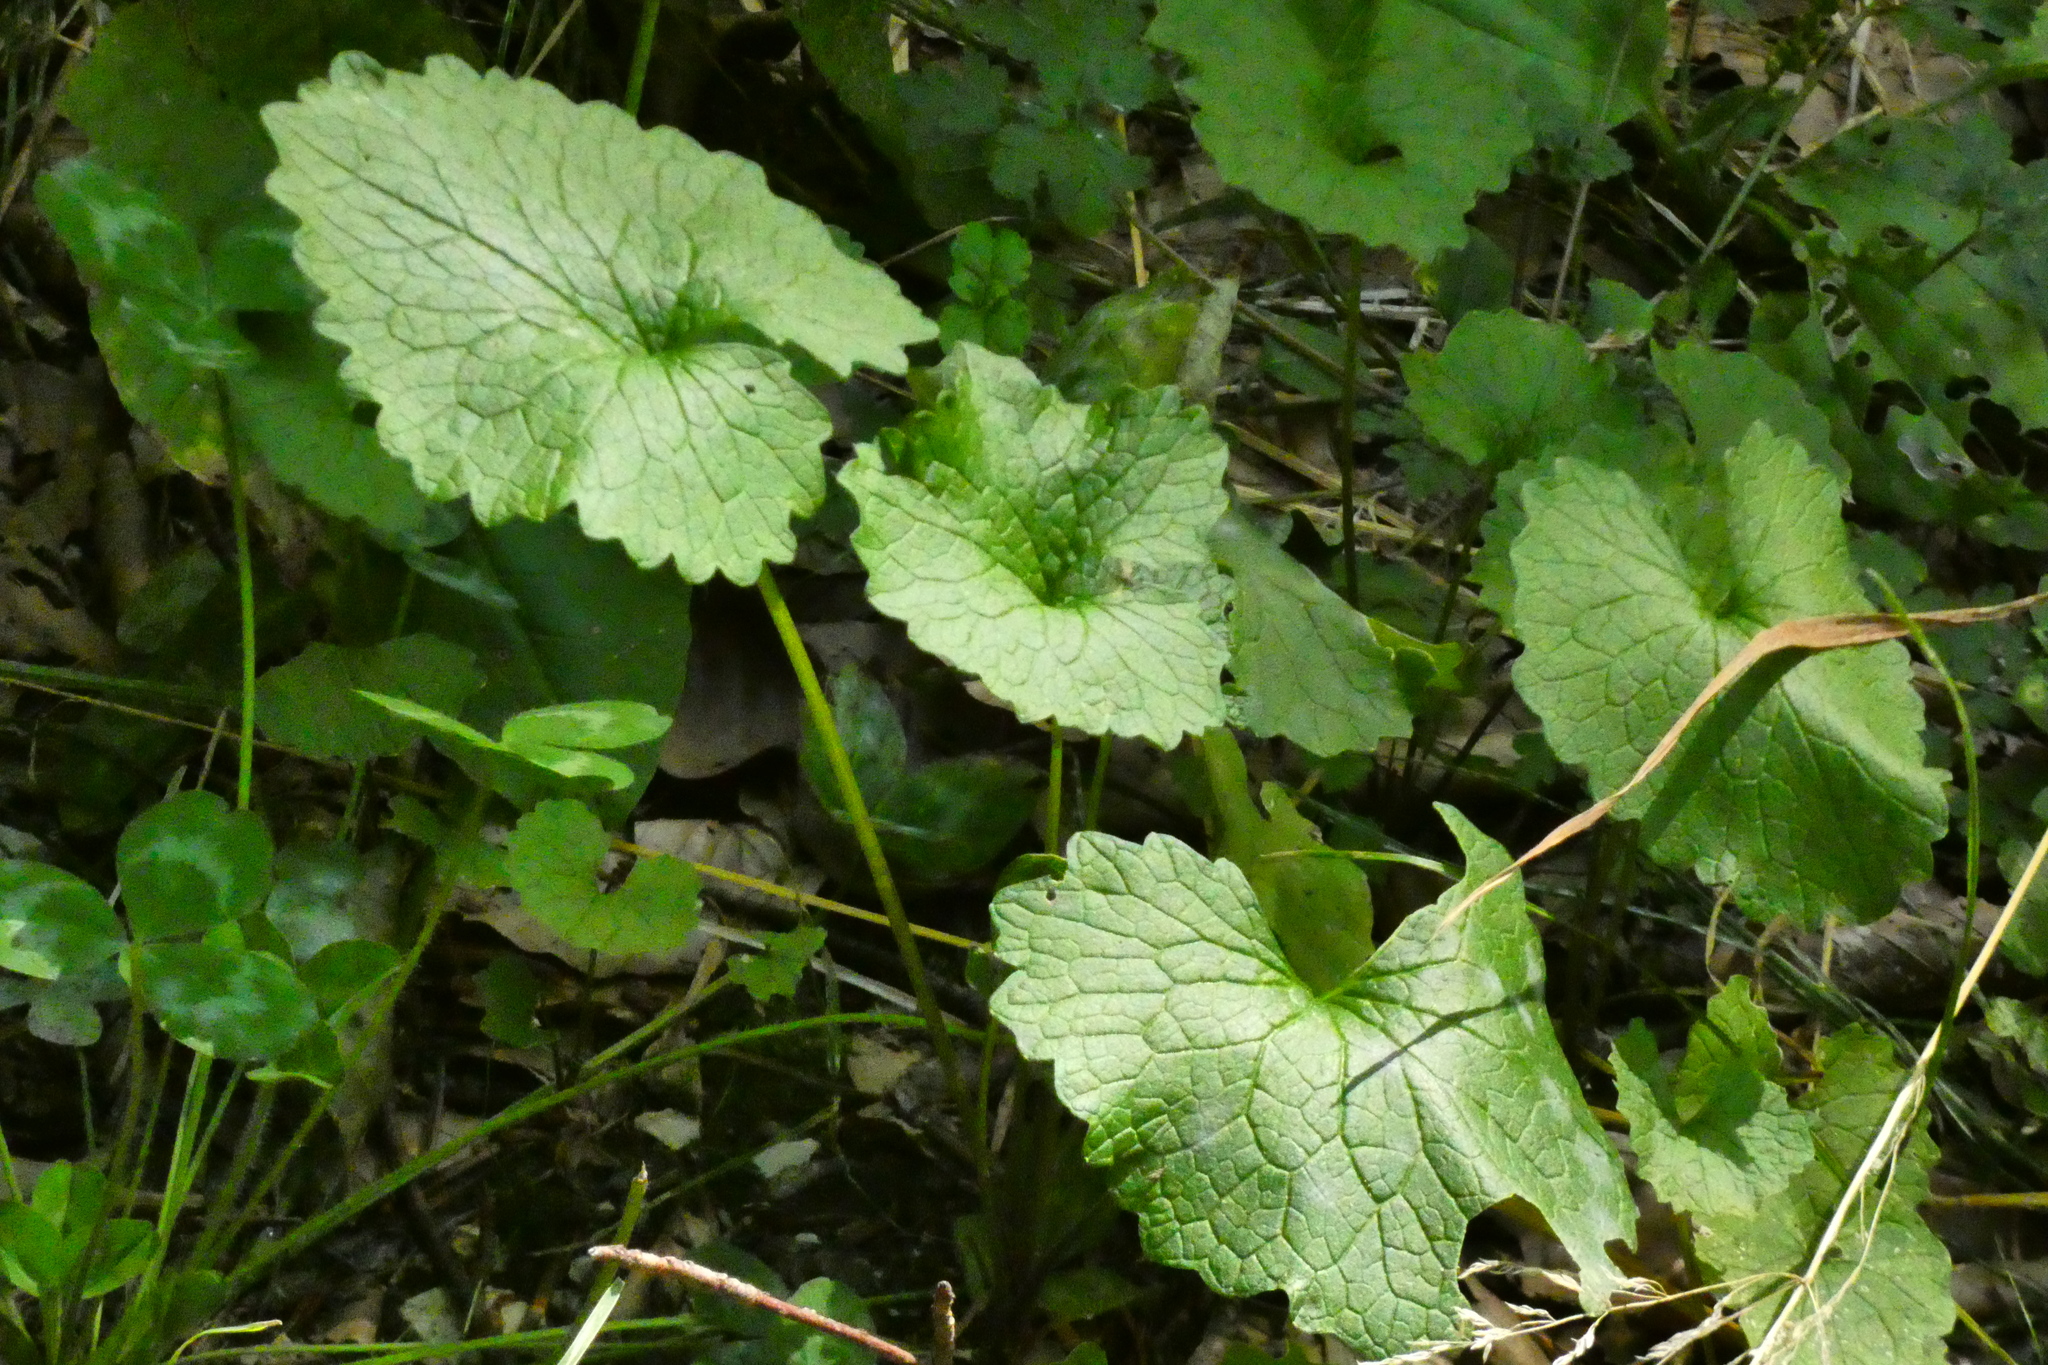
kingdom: Plantae
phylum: Tracheophyta
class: Magnoliopsida
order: Brassicales
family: Brassicaceae
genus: Alliaria
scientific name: Alliaria petiolata
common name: Garlic mustard
